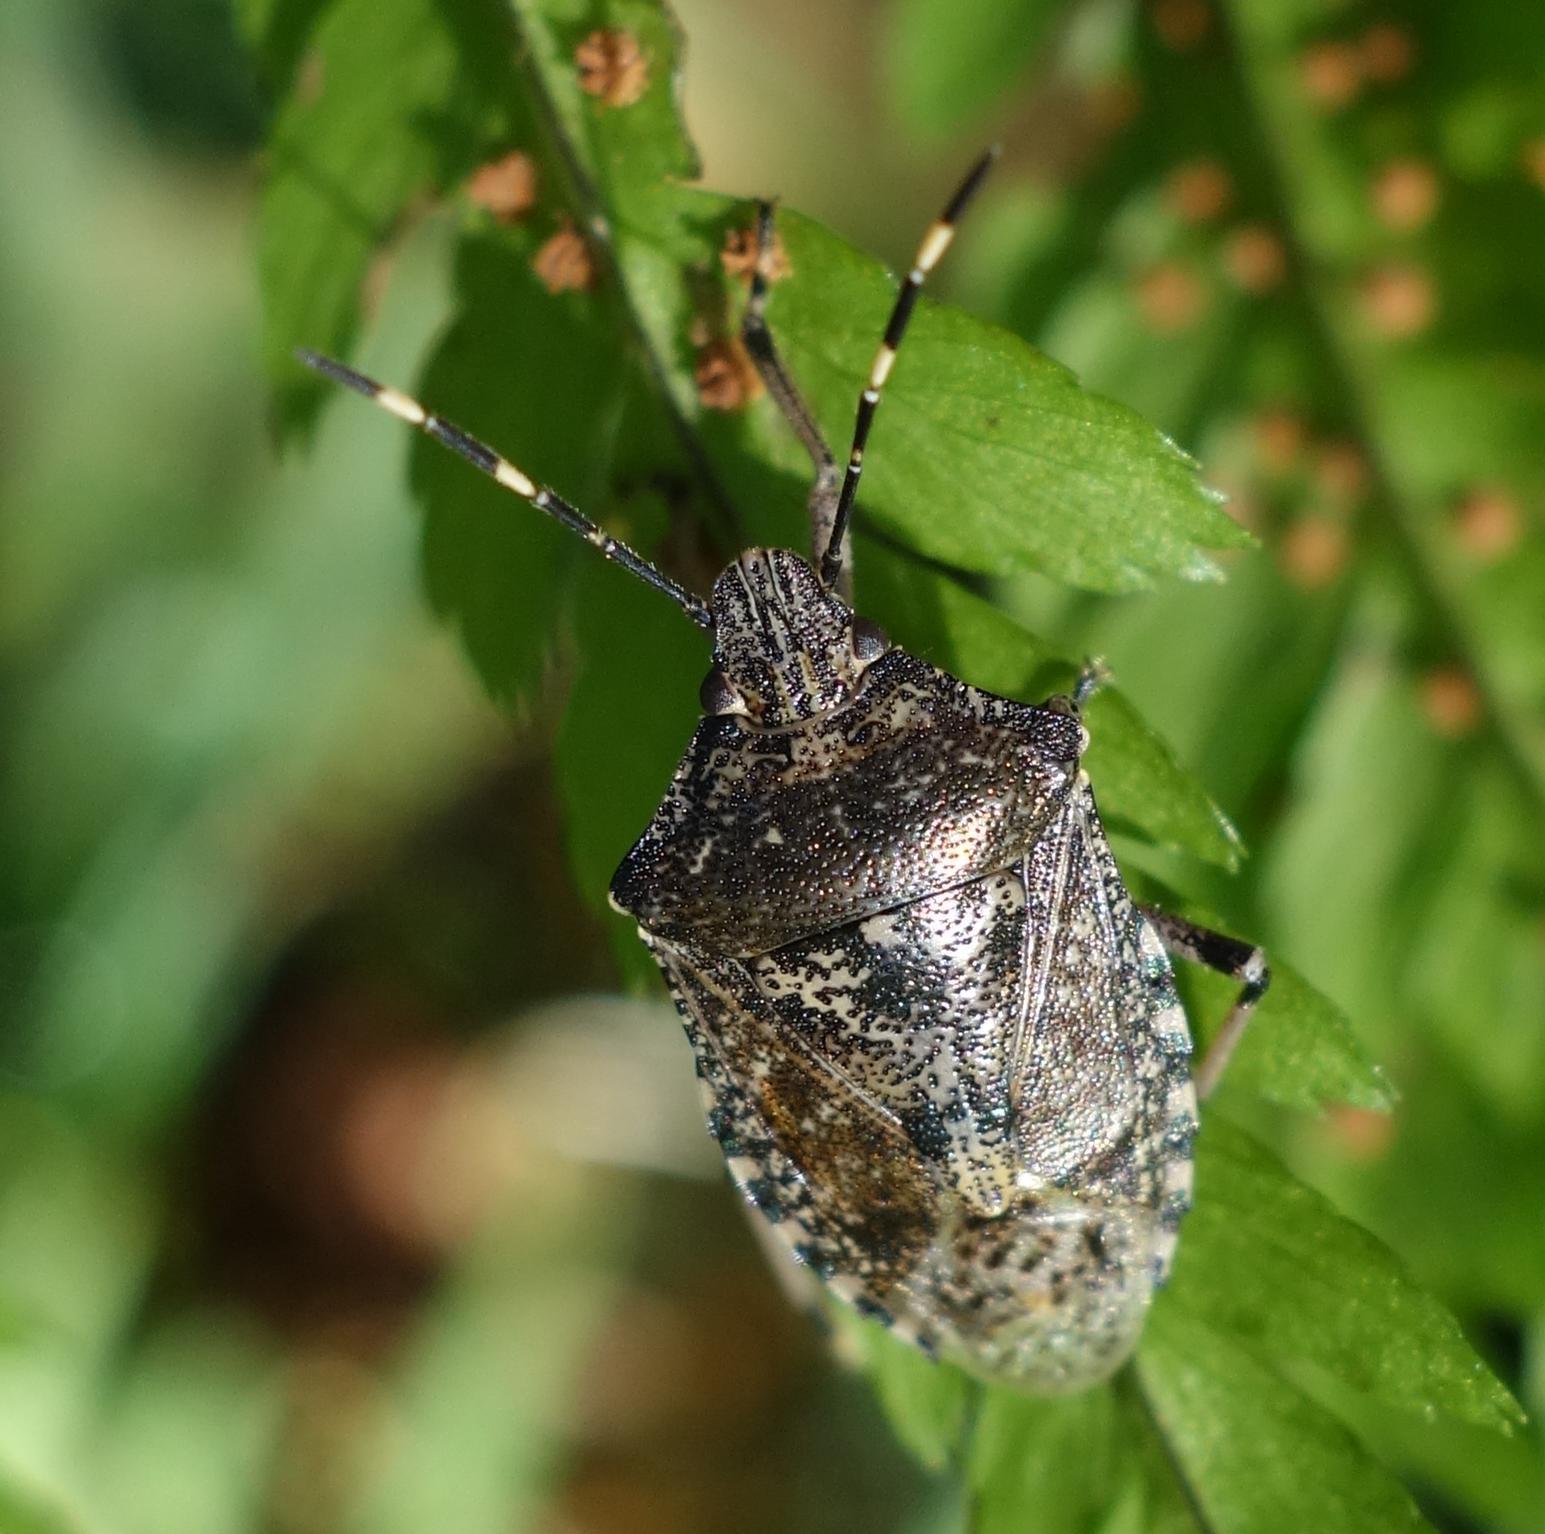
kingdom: Animalia
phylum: Arthropoda
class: Insecta
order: Hemiptera
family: Pentatomidae
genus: Rhaphigaster
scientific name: Rhaphigaster nebulosa
